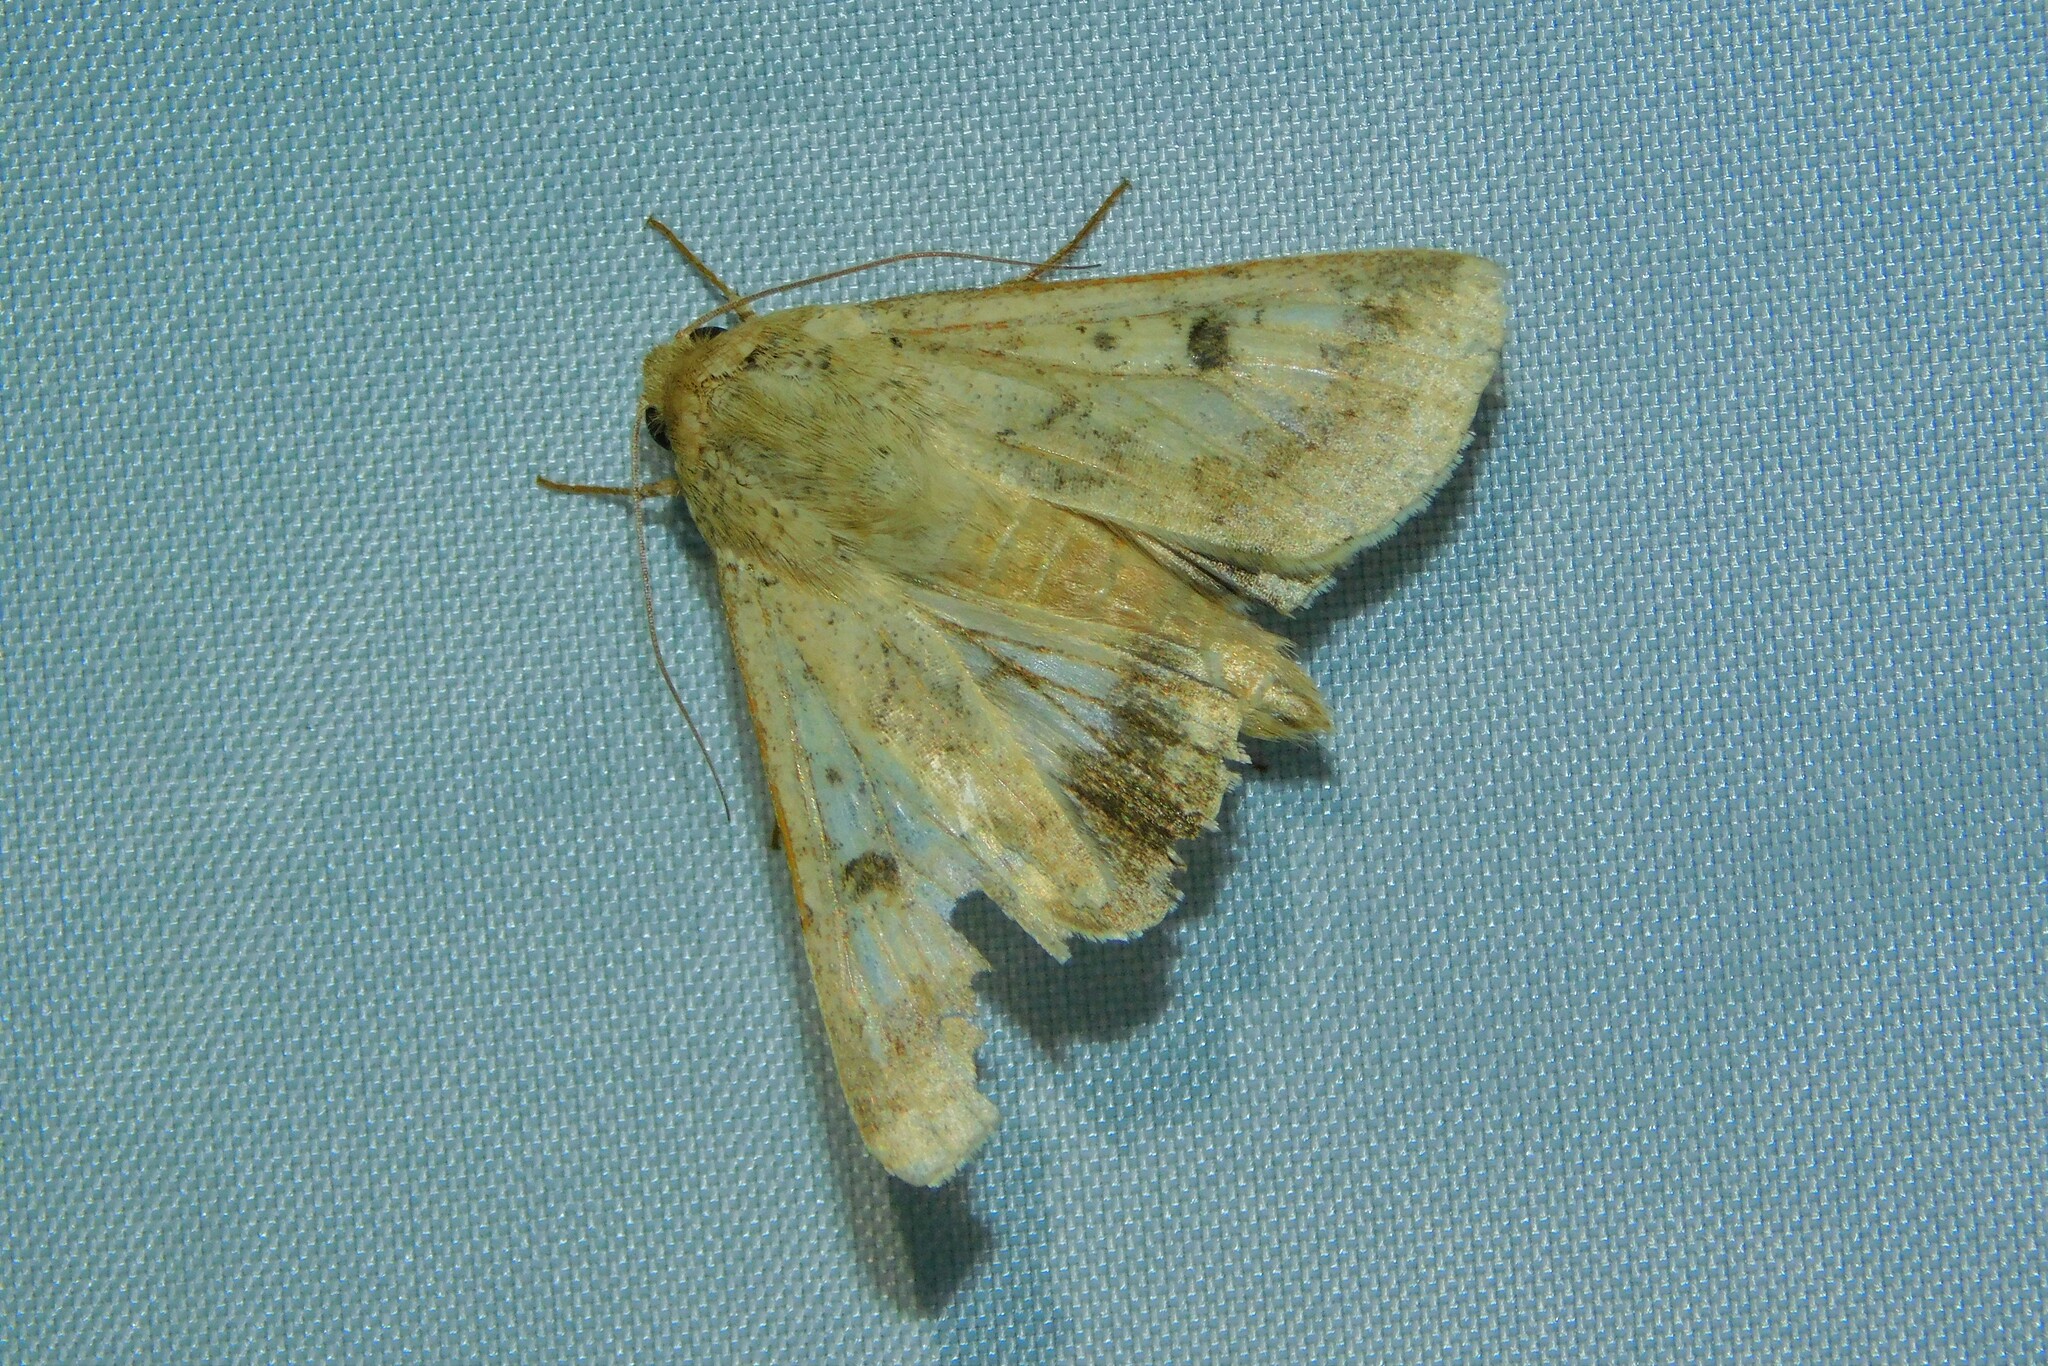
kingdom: Animalia
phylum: Arthropoda
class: Insecta
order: Lepidoptera
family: Noctuidae
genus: Helicoverpa
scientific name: Helicoverpa armigera
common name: Cotton bollworm
